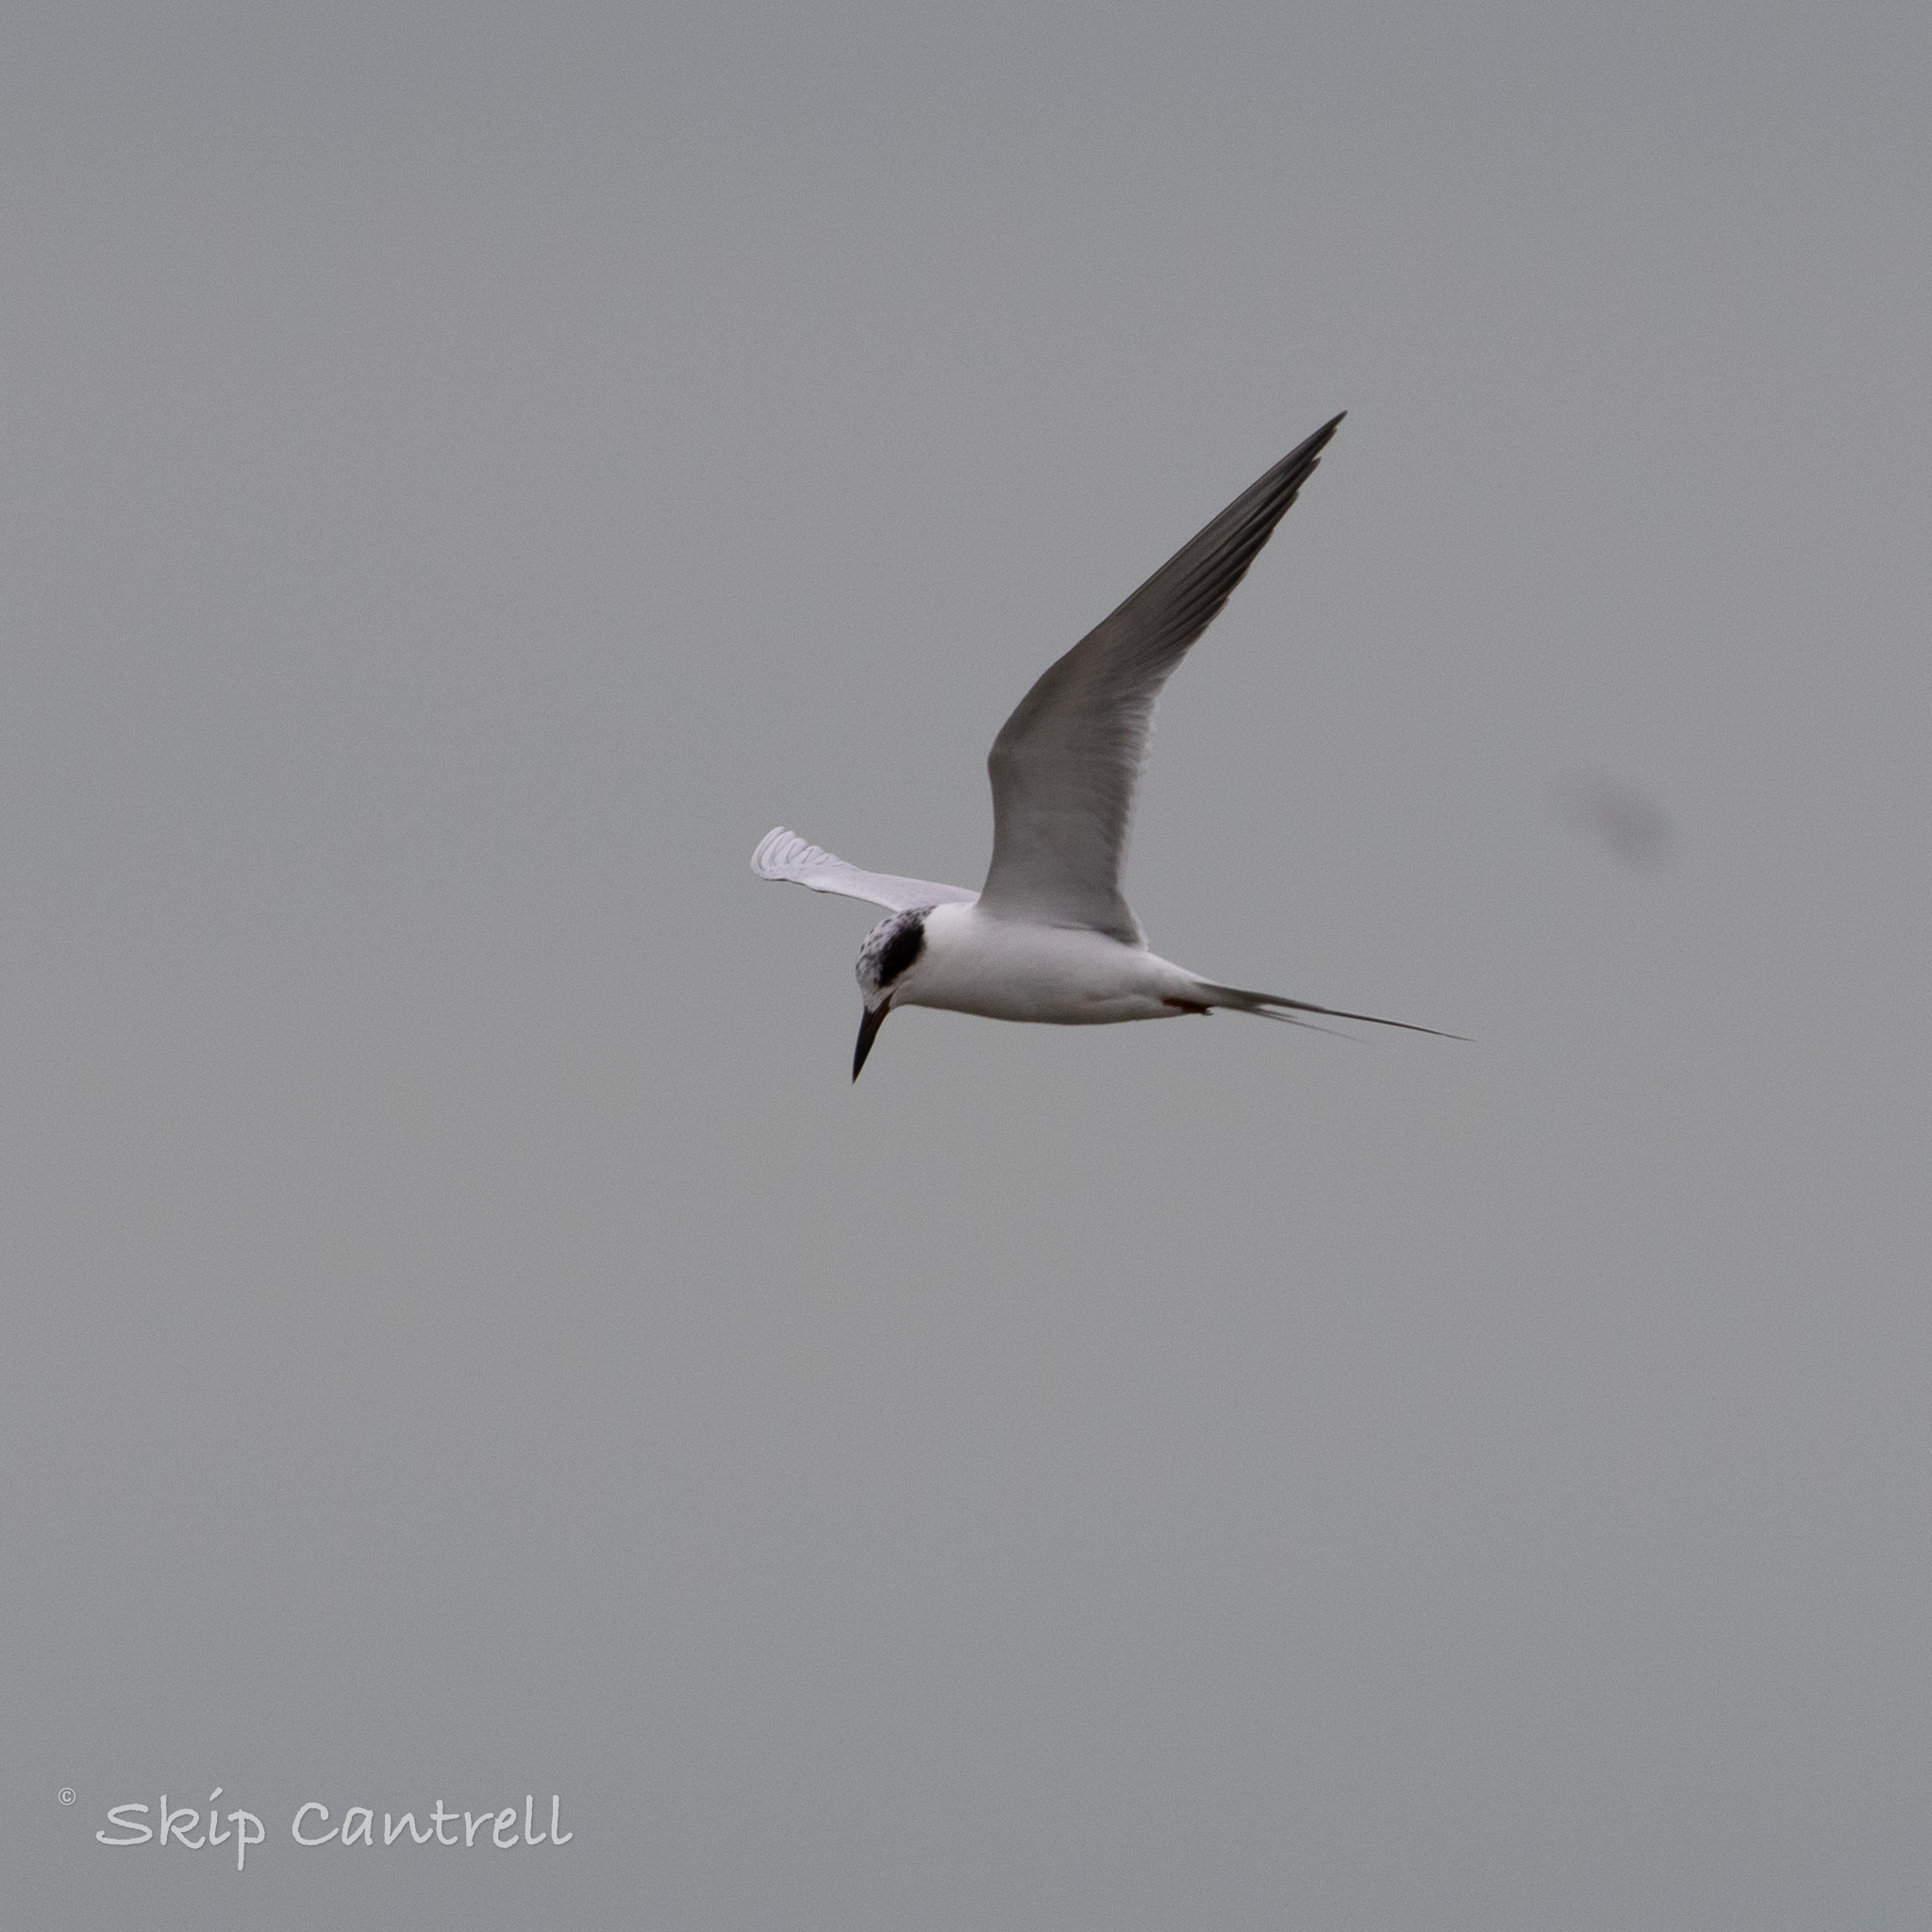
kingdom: Animalia
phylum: Chordata
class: Aves
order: Charadriiformes
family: Laridae
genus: Sterna
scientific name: Sterna forsteri
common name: Forster's tern
